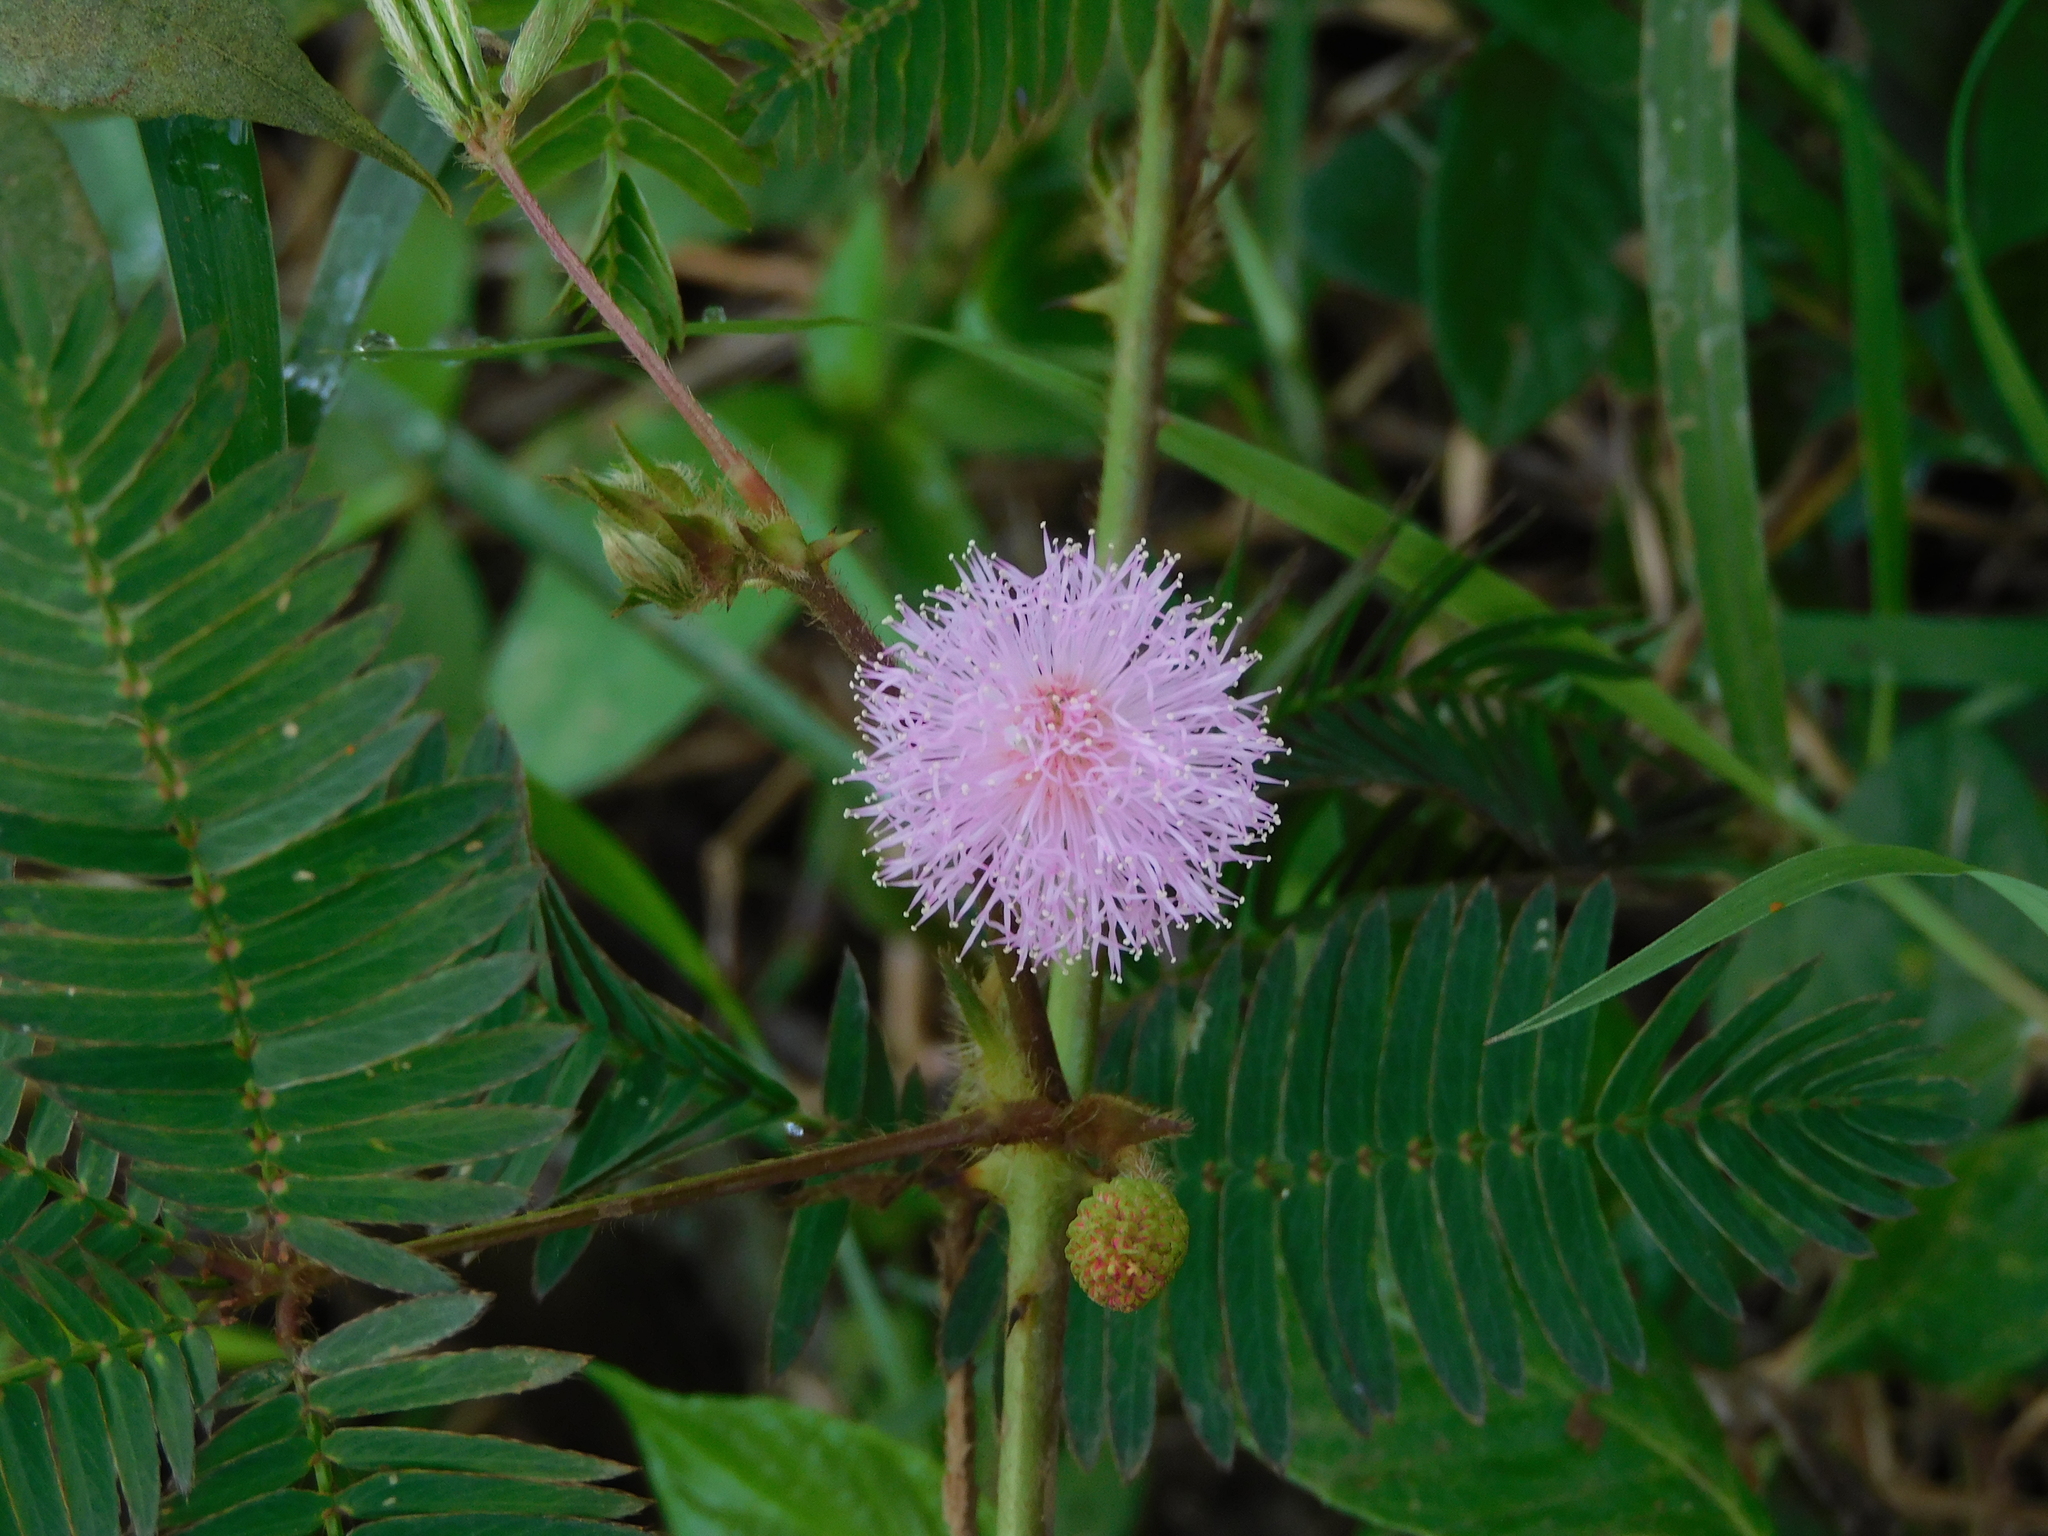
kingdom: Plantae
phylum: Tracheophyta
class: Magnoliopsida
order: Fabales
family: Fabaceae
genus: Mimosa
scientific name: Mimosa pudica
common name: Sensitive plant
